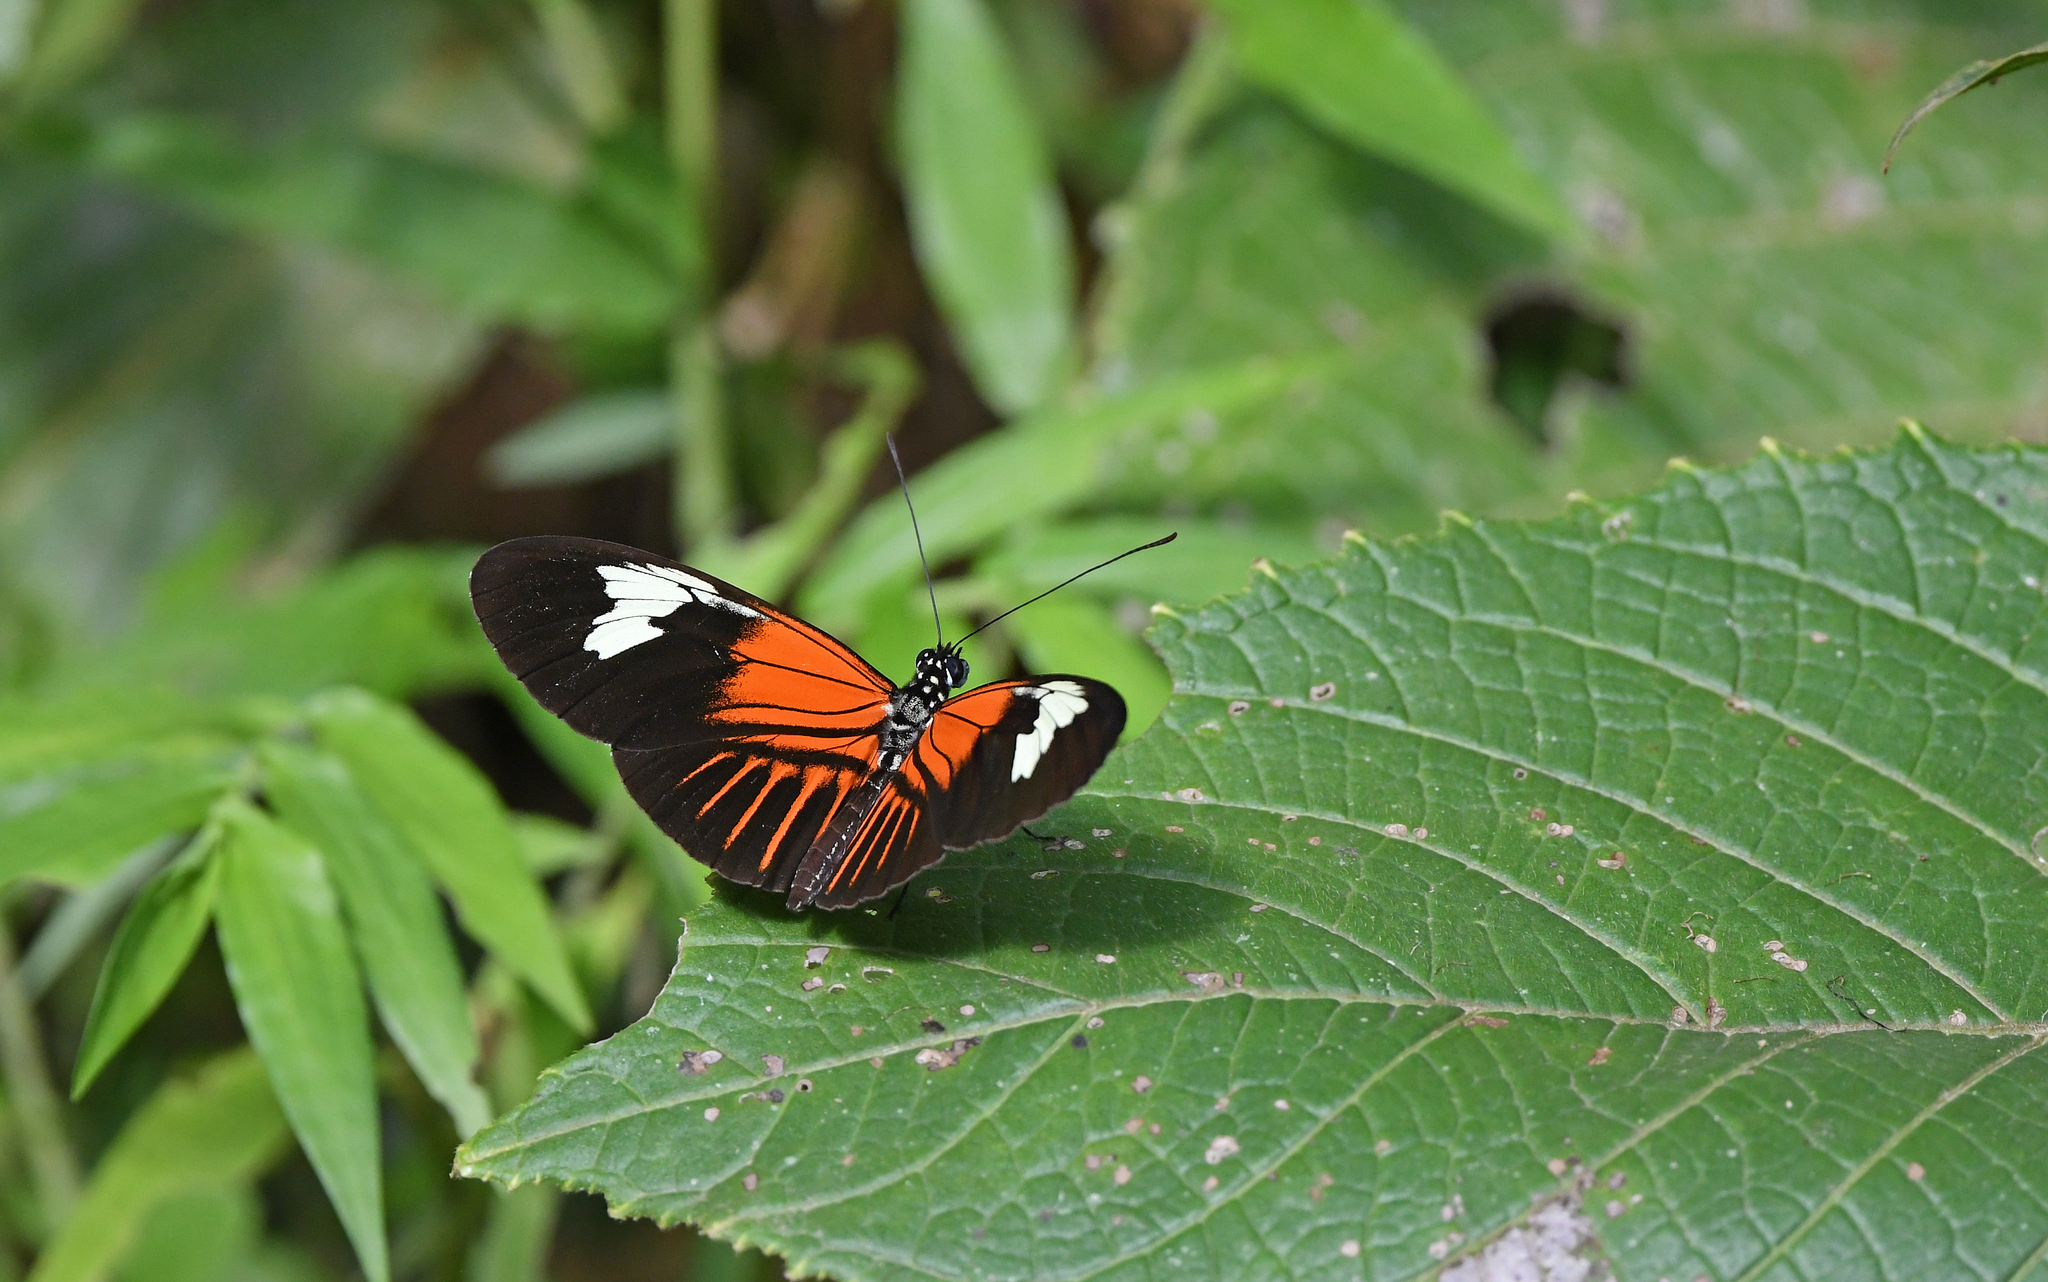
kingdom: Animalia
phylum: Arthropoda
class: Insecta
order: Lepidoptera
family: Nymphalidae
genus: Heliconius
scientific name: Heliconius melpomene
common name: Postman
